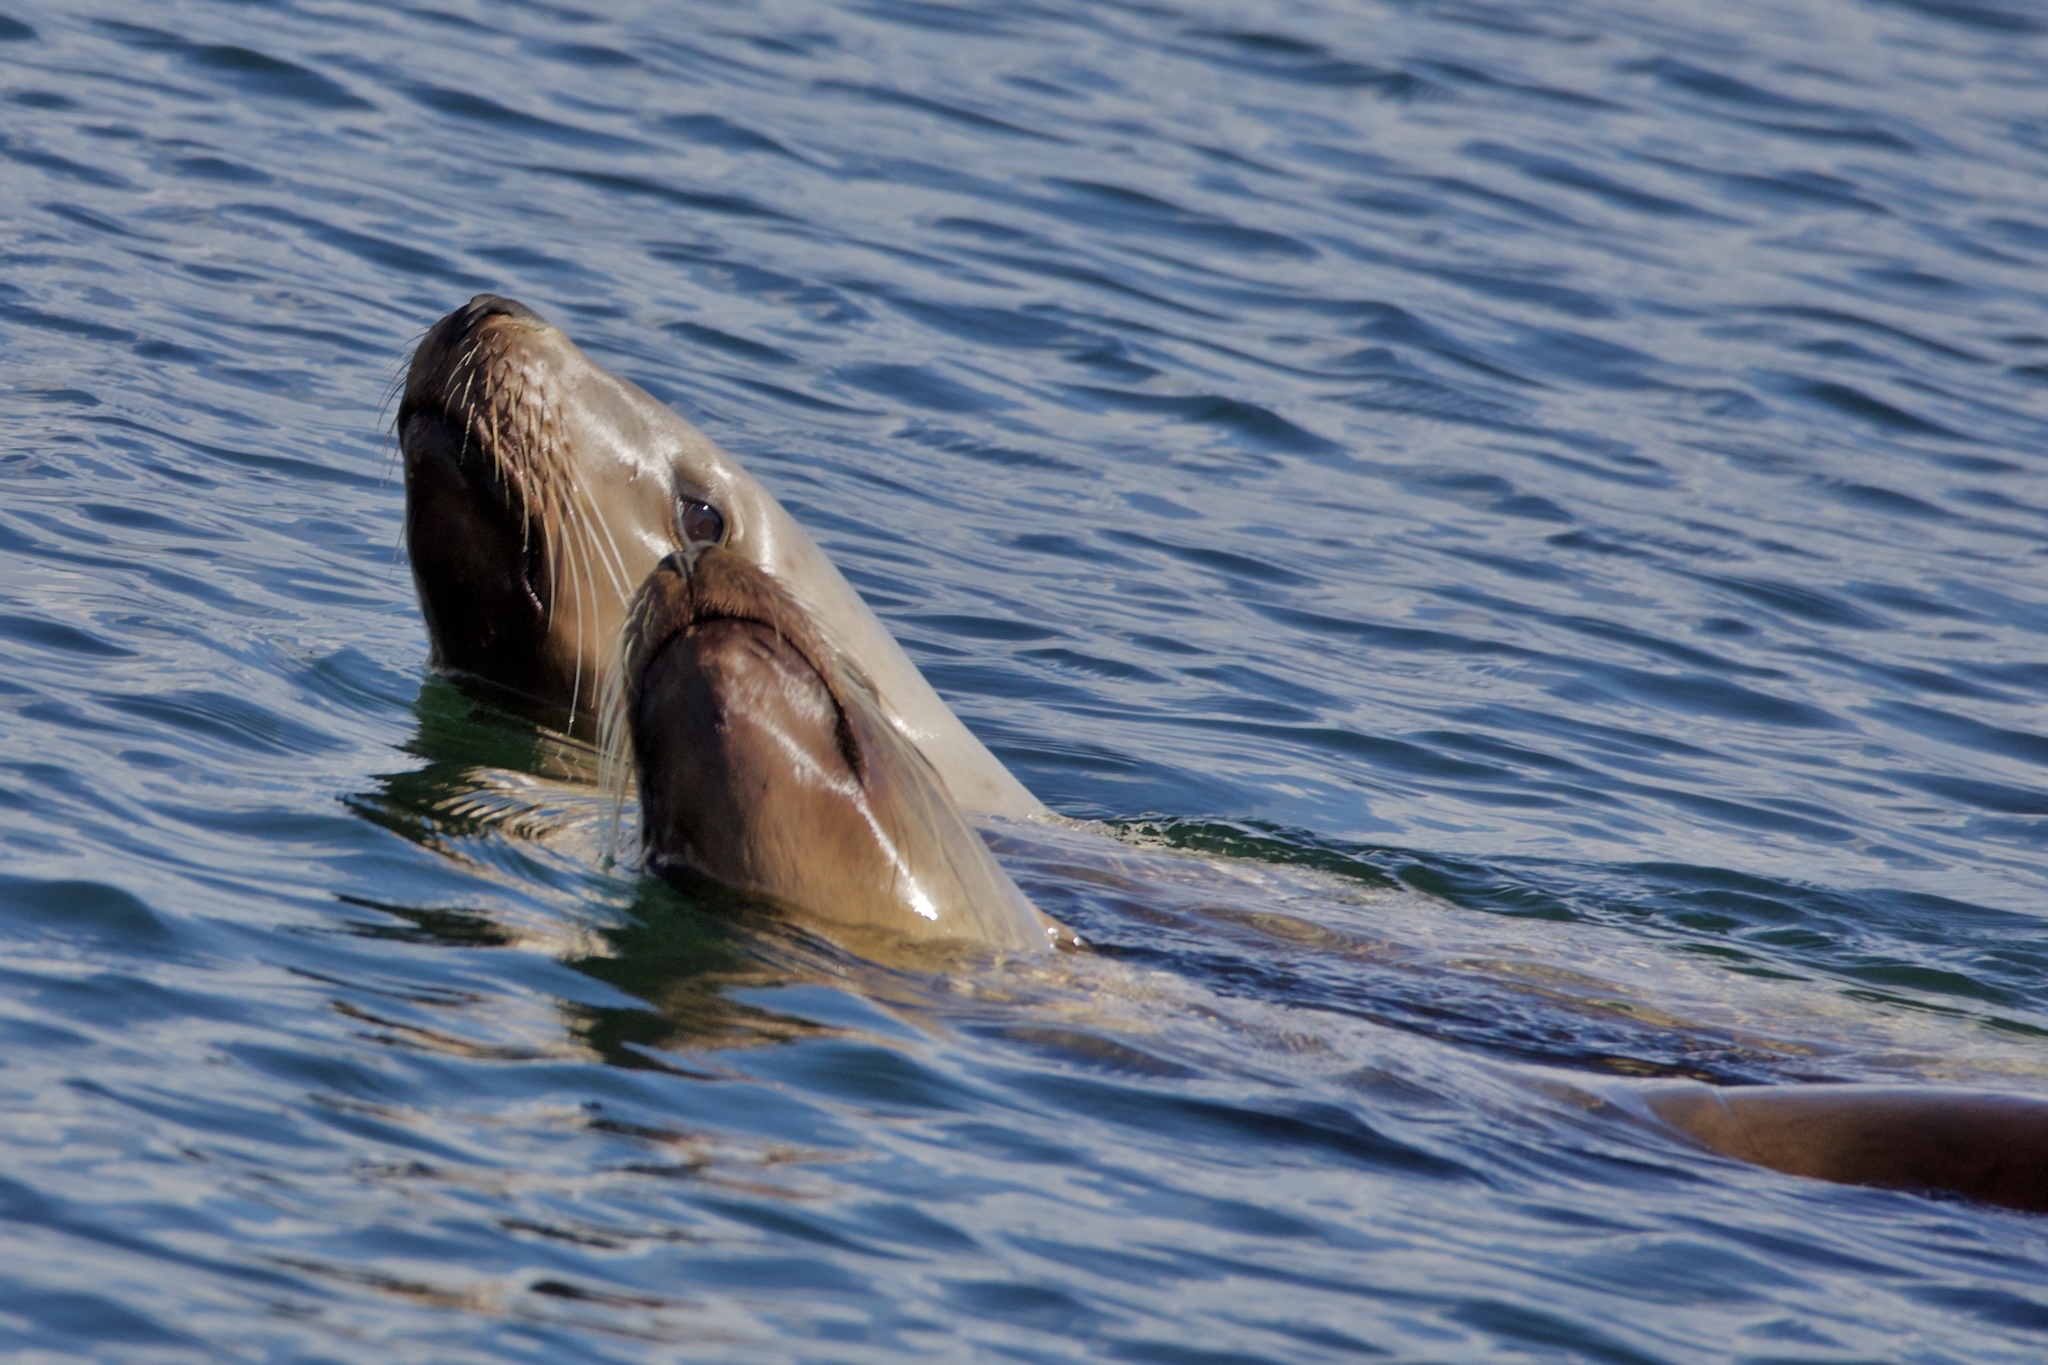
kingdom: Animalia
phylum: Chordata
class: Mammalia
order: Carnivora
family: Otariidae
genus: Eumetopias
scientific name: Eumetopias jubatus
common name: Steller sea lion
